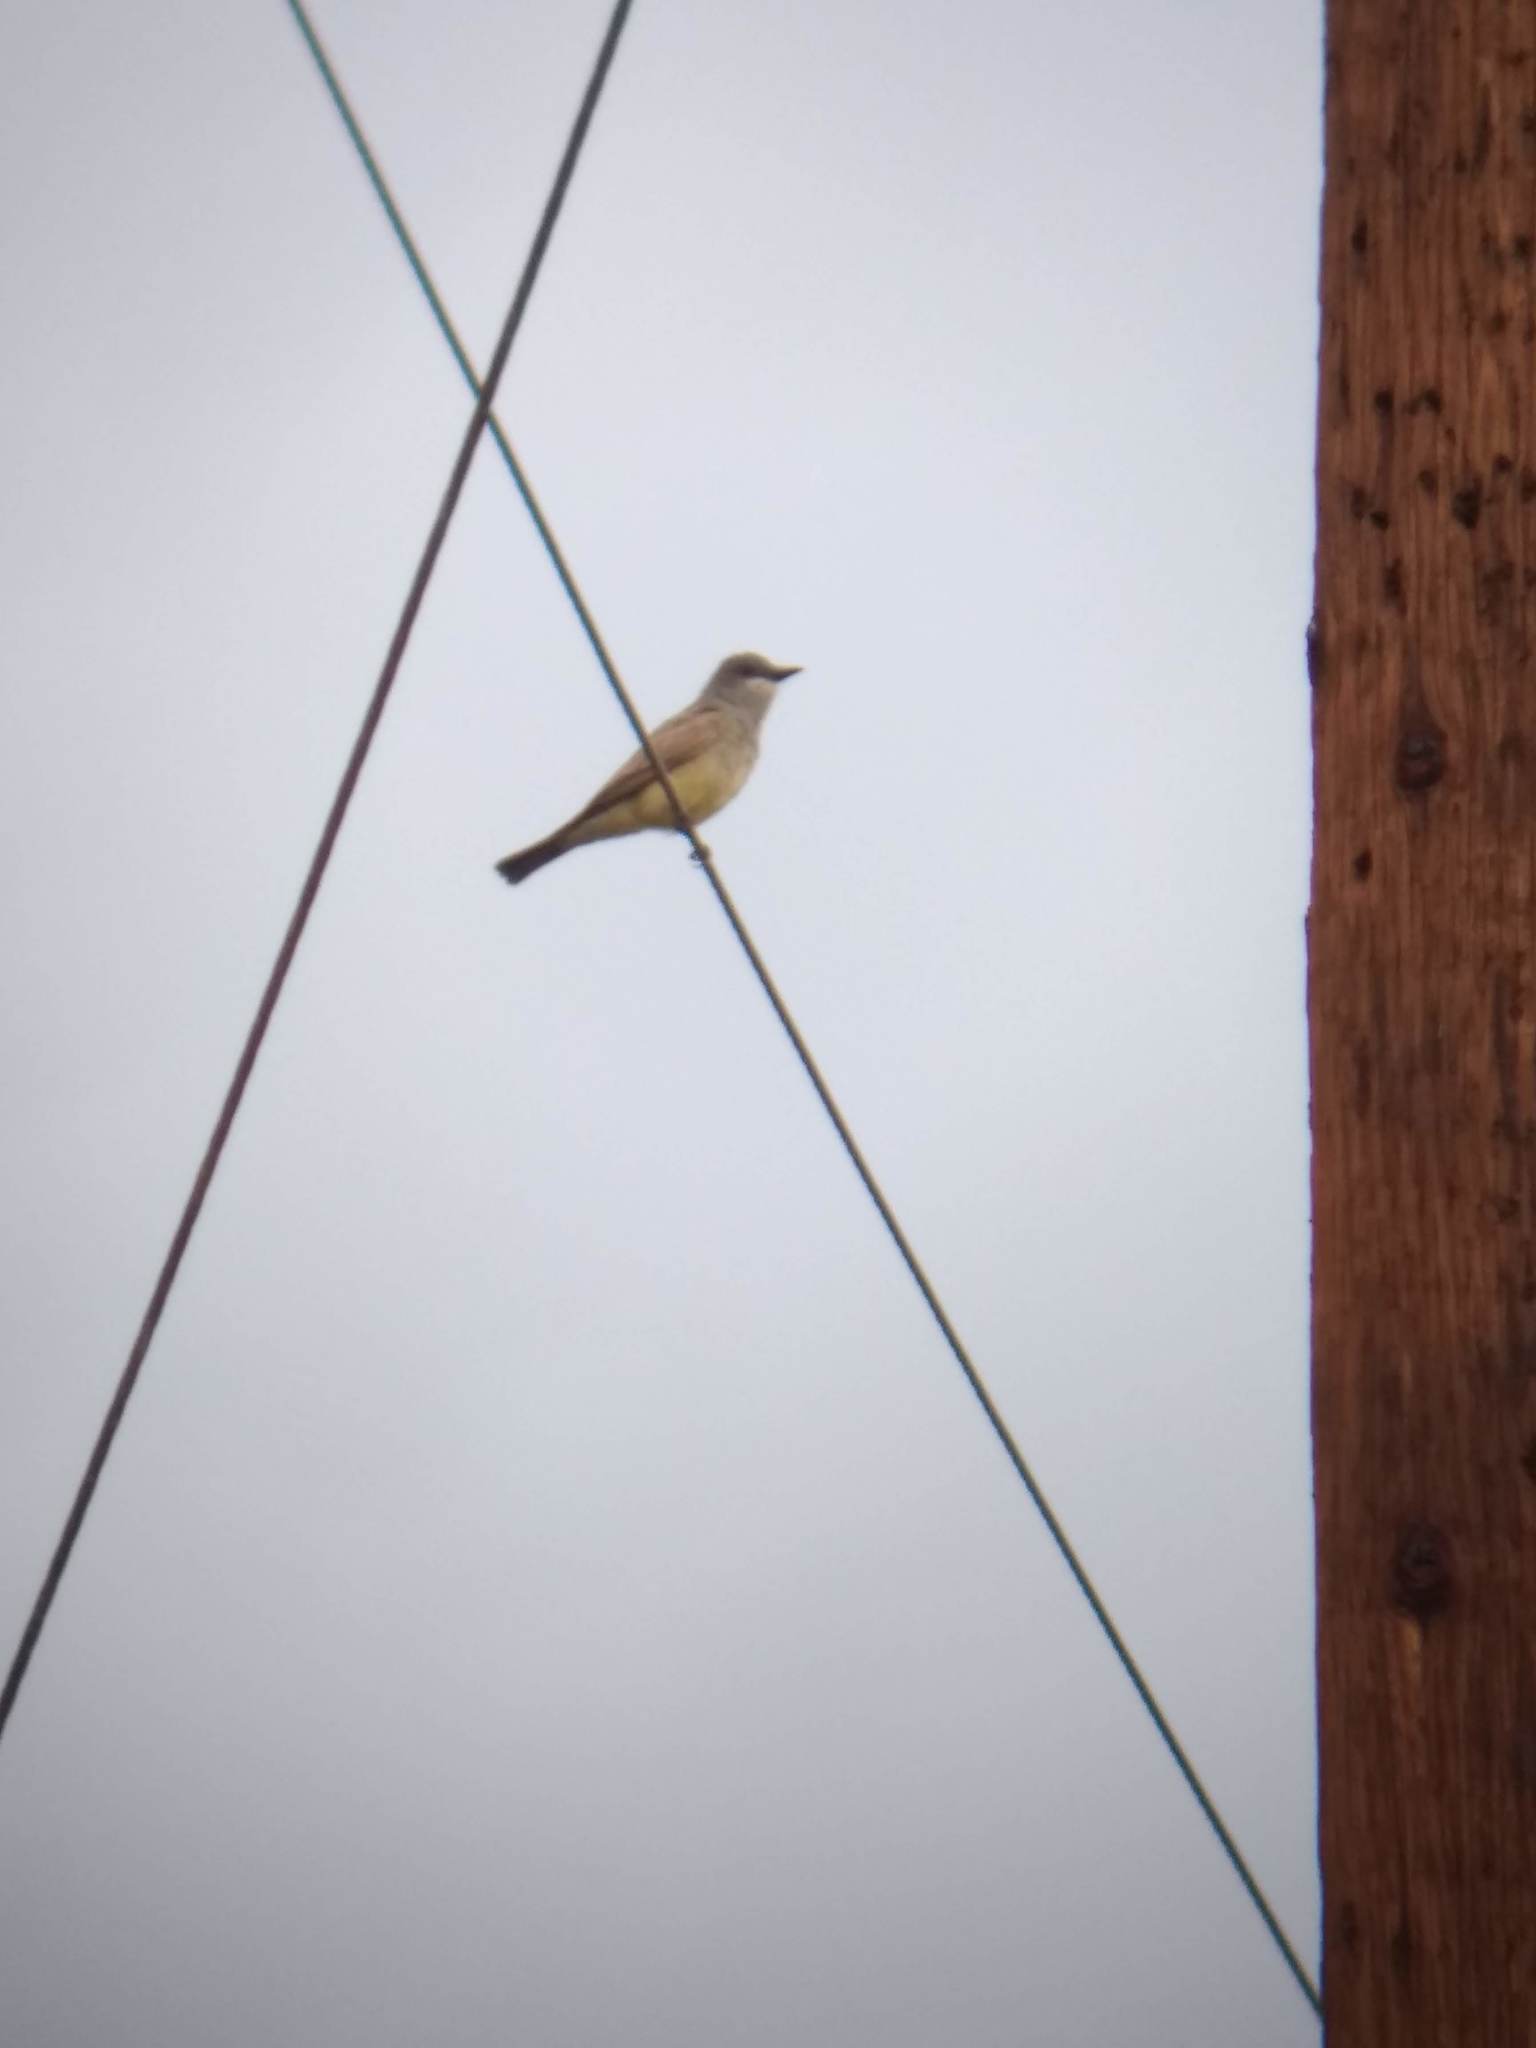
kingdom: Animalia
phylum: Chordata
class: Aves
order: Passeriformes
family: Tyrannidae
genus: Tyrannus
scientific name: Tyrannus vociferans
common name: Cassin's kingbird
